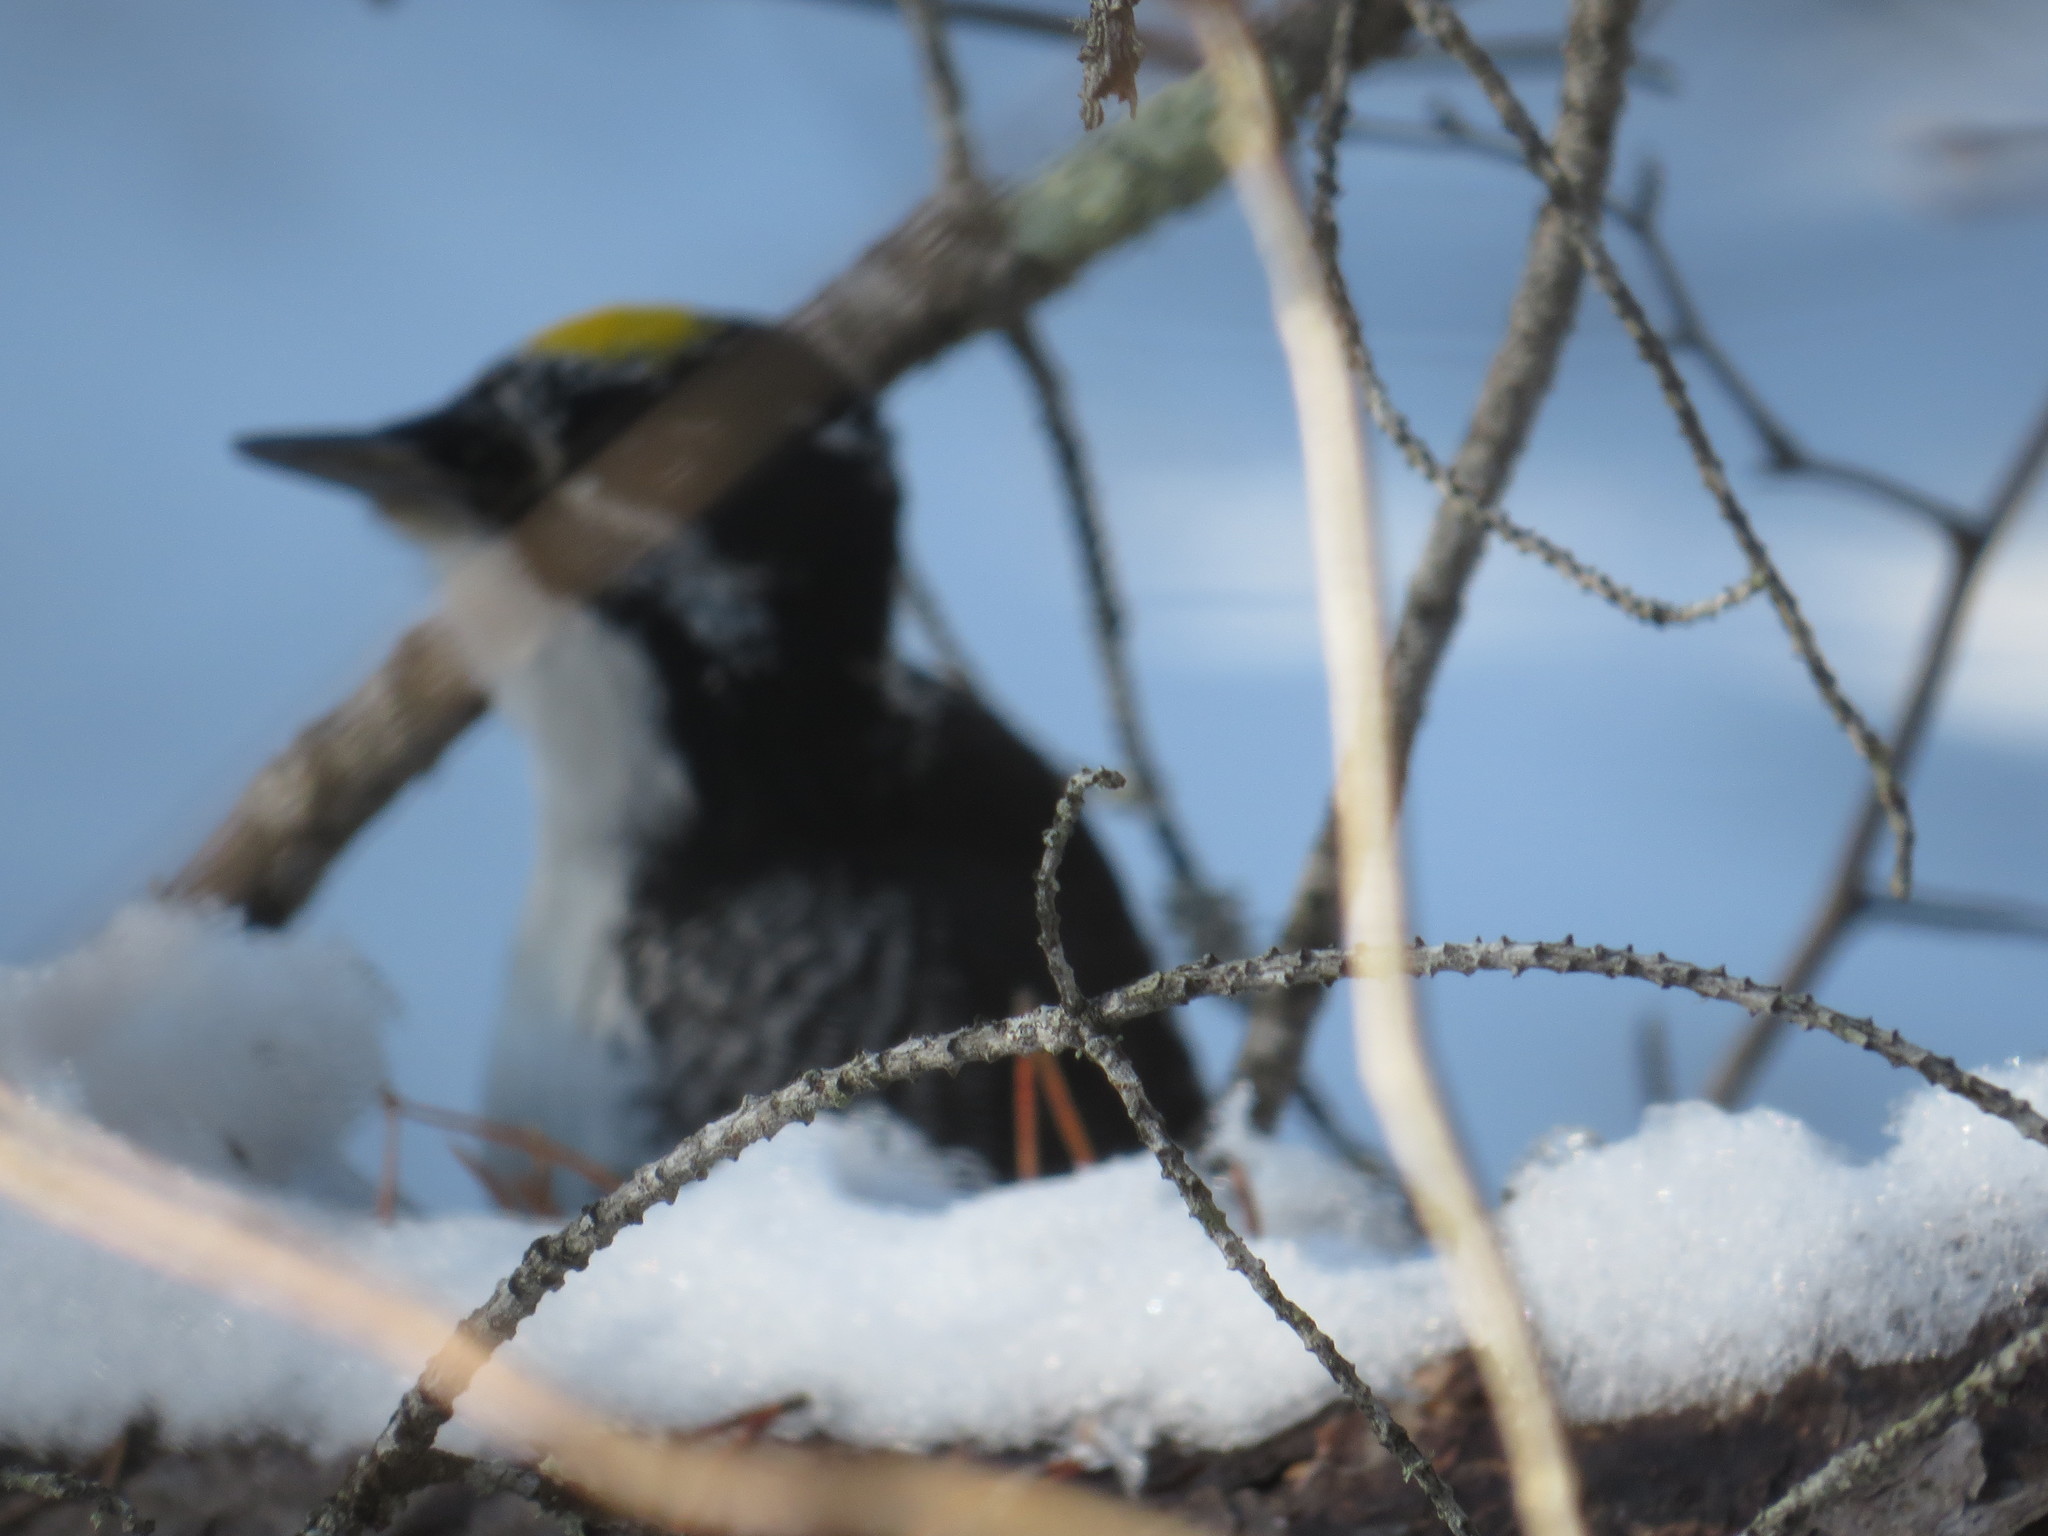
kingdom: Animalia
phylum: Chordata
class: Aves
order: Piciformes
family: Picidae
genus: Picoides
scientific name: Picoides dorsalis
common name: American three-toed woodpecker
